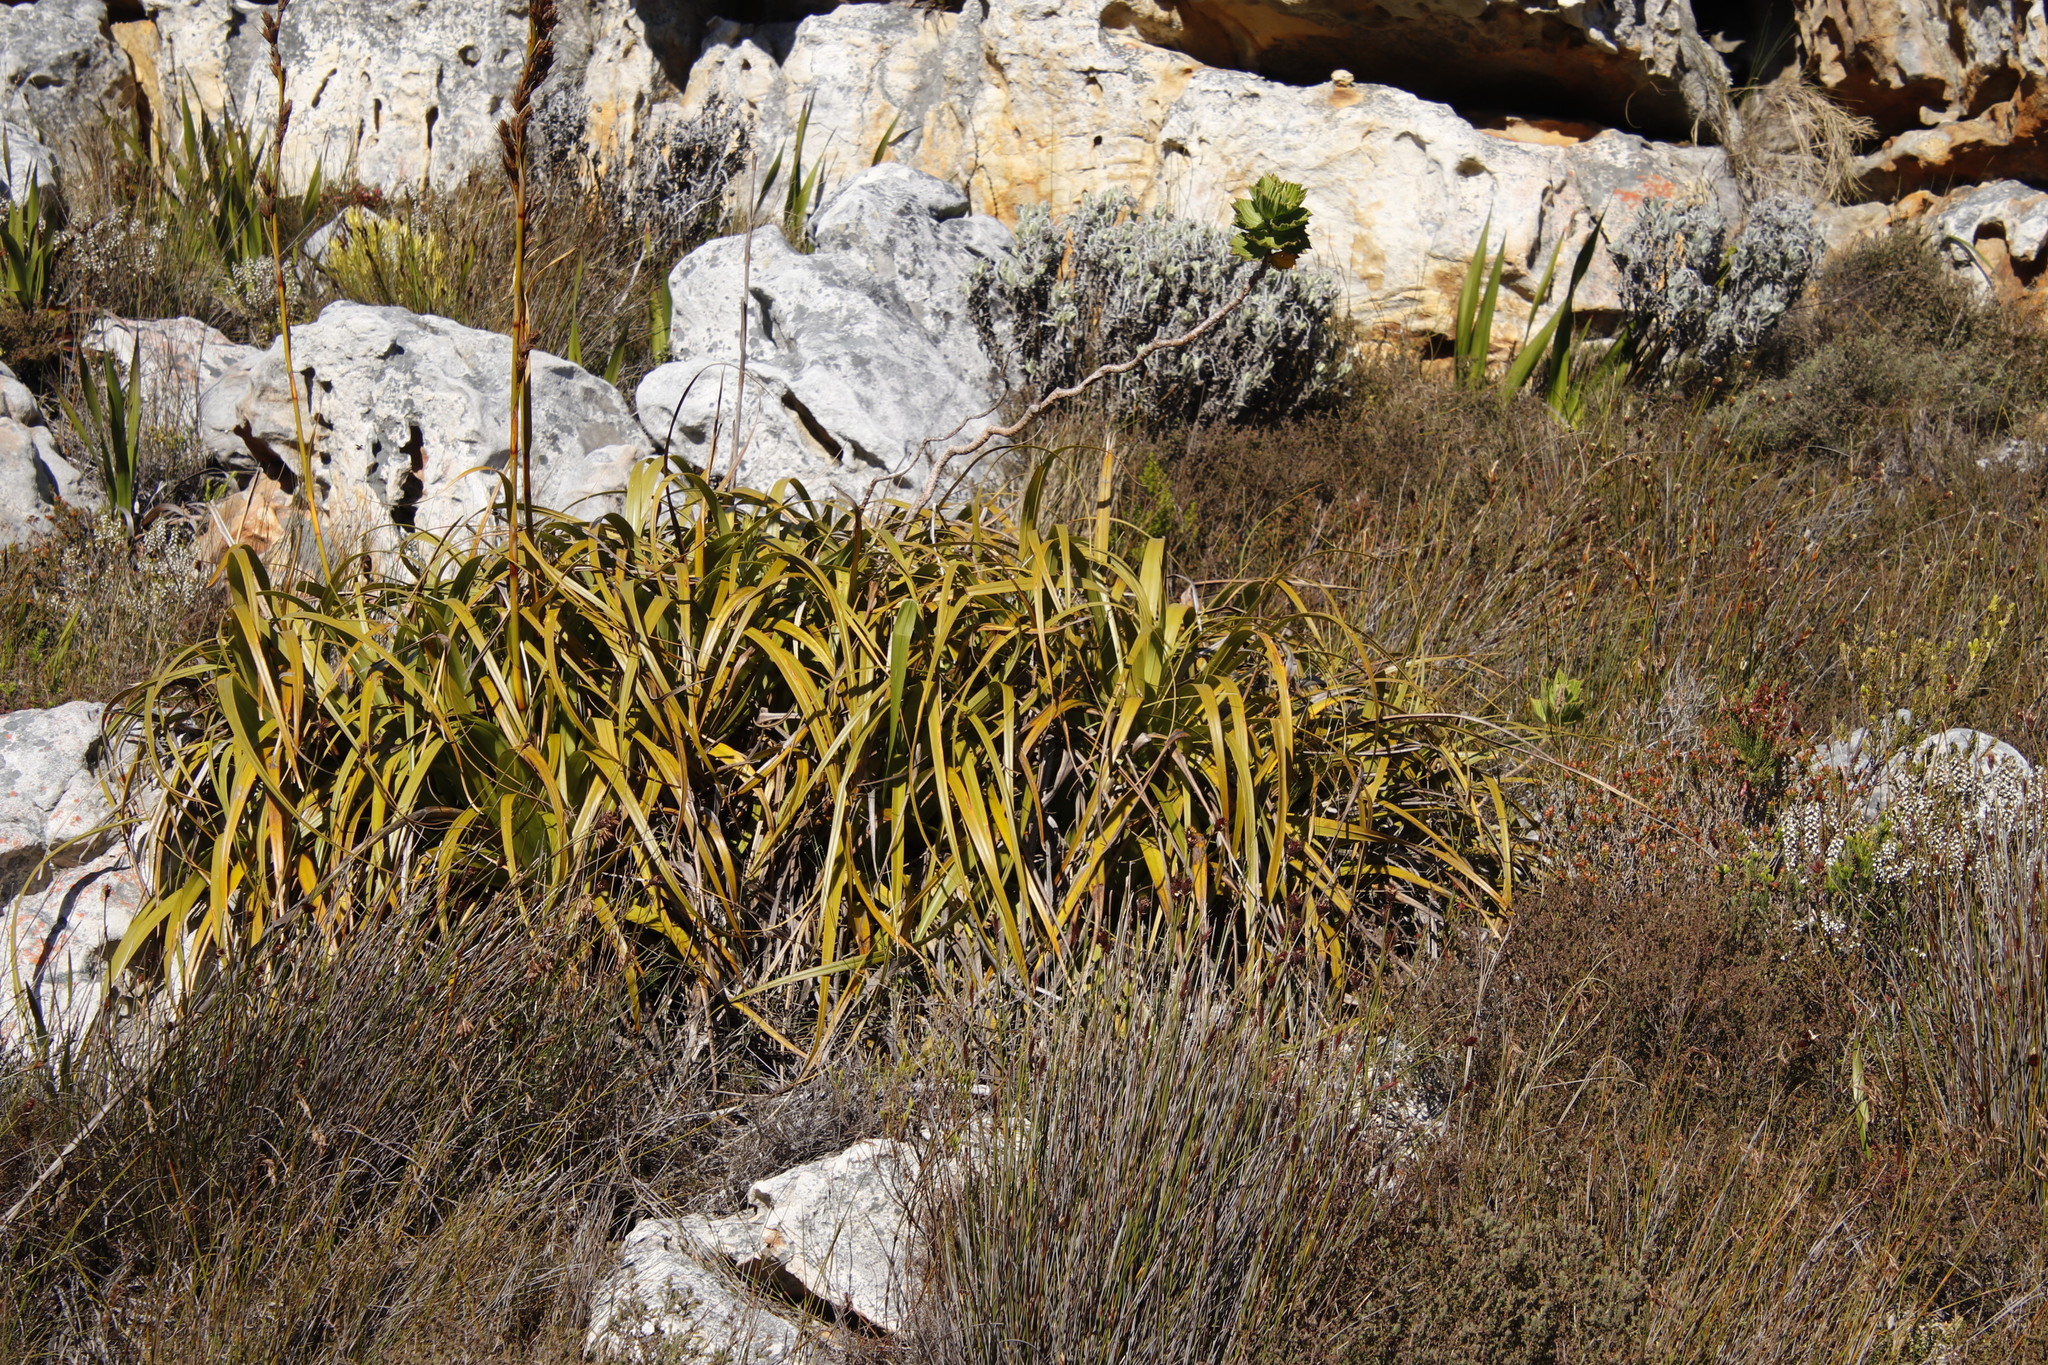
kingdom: Plantae
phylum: Tracheophyta
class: Liliopsida
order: Poales
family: Cyperaceae
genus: Tetraria
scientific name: Tetraria thermalis
